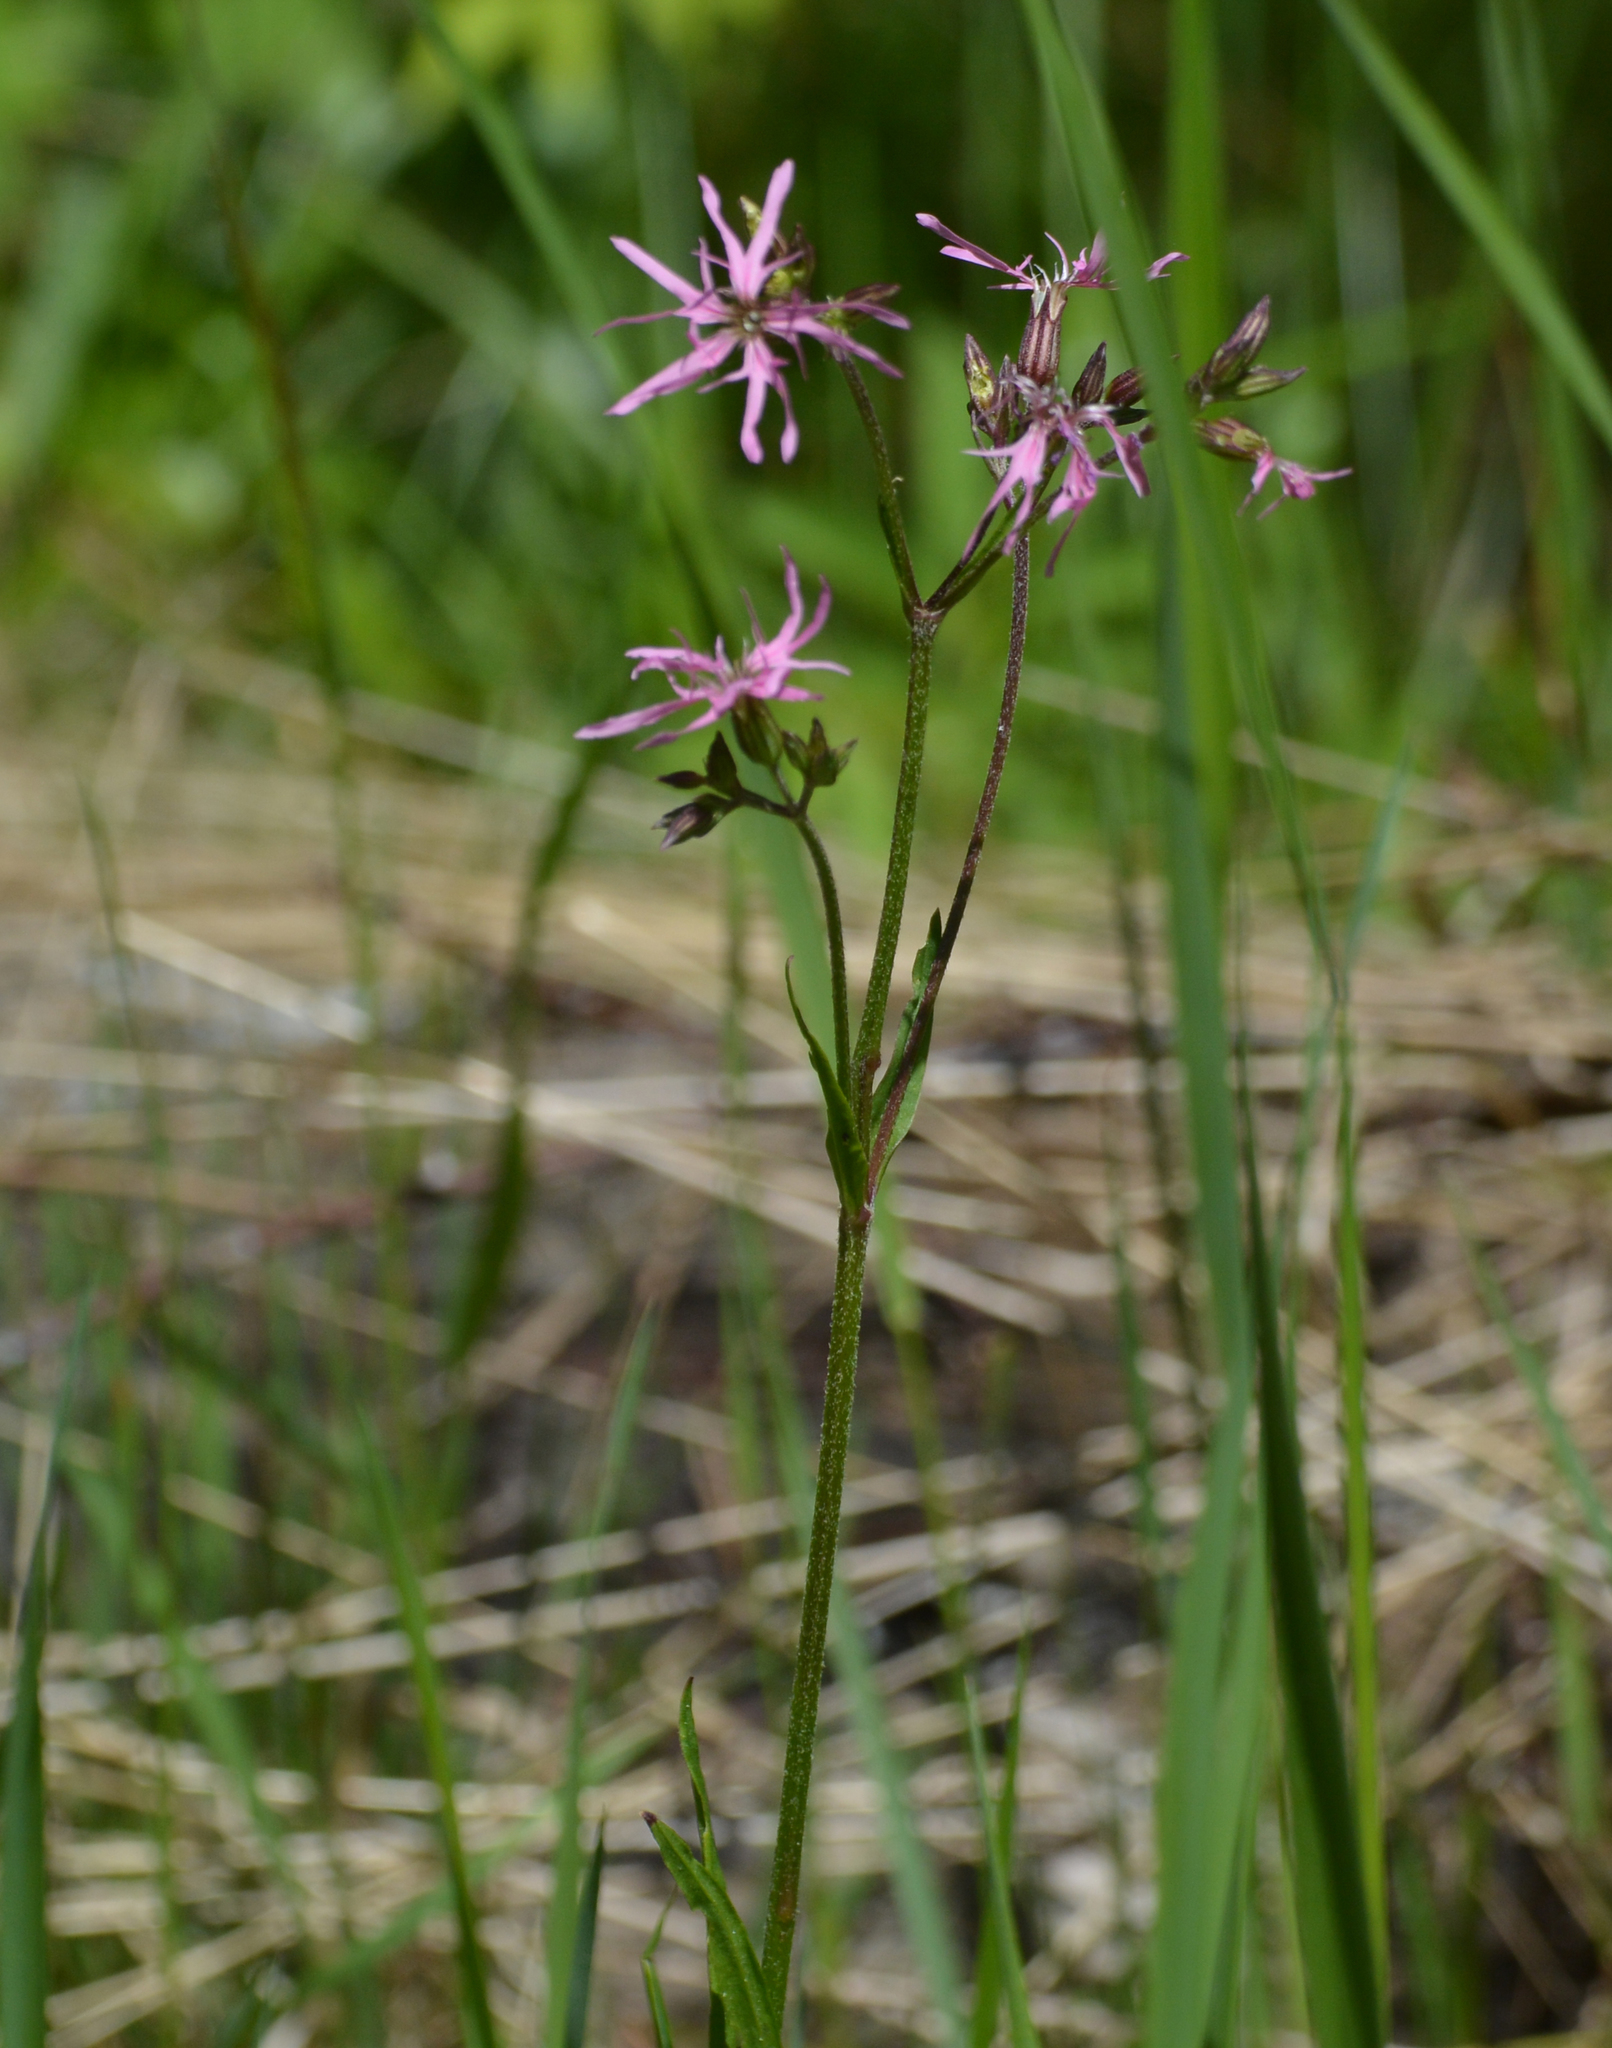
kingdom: Plantae
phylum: Tracheophyta
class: Magnoliopsida
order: Caryophyllales
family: Caryophyllaceae
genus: Silene
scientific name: Silene flos-cuculi
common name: Ragged-robin
